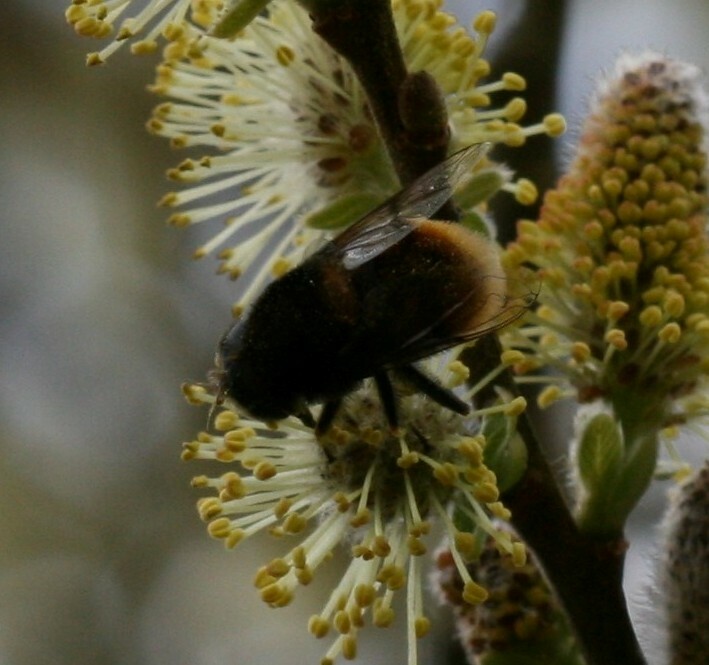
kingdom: Animalia
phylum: Arthropoda
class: Insecta
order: Diptera
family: Syrphidae
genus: Eristalis
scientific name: Eristalis intricaria
